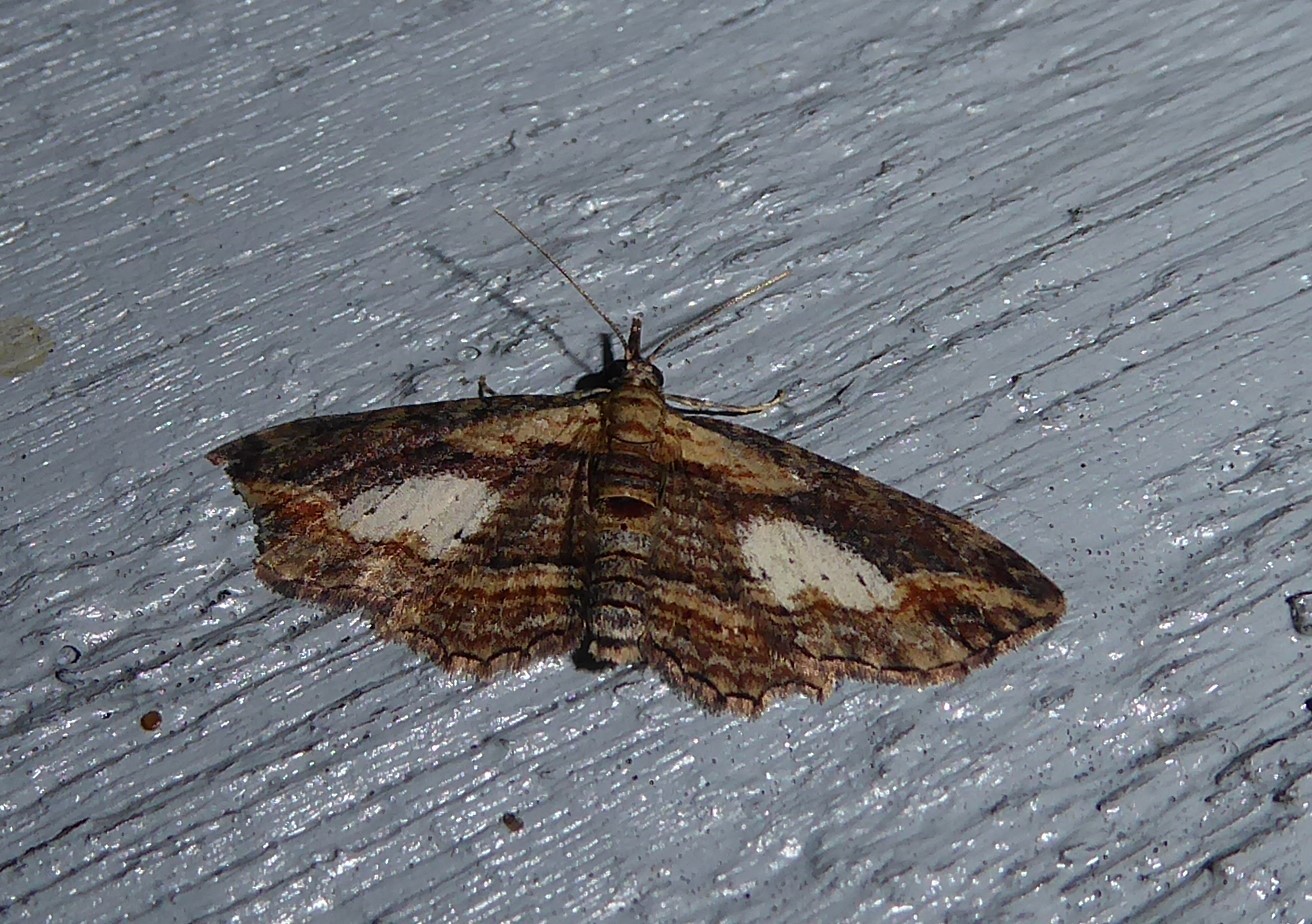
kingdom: Animalia
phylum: Arthropoda
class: Insecta
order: Lepidoptera
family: Geometridae
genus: Chloroclystis
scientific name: Chloroclystis filata
